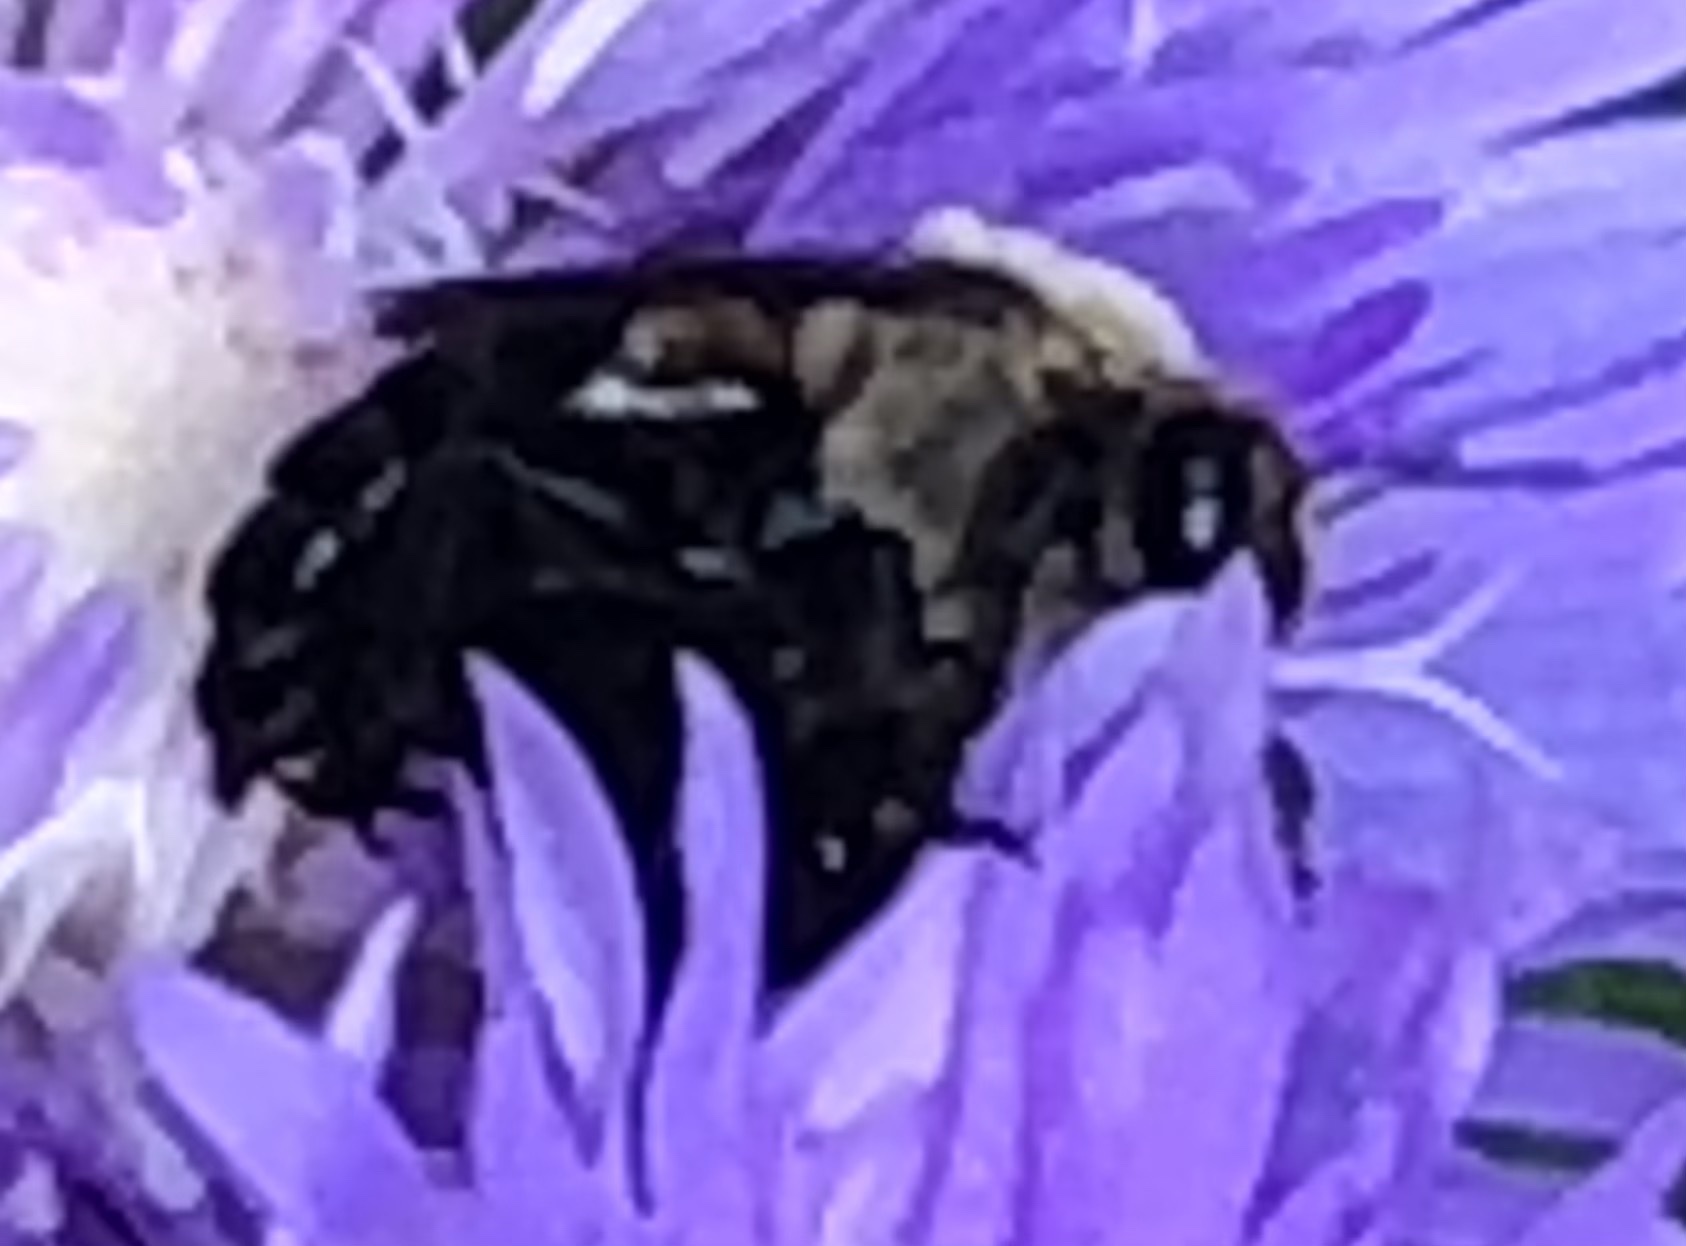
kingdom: Animalia
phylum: Arthropoda
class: Insecta
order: Hymenoptera
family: Apidae
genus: Ptilothrix
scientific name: Ptilothrix bombiformis
